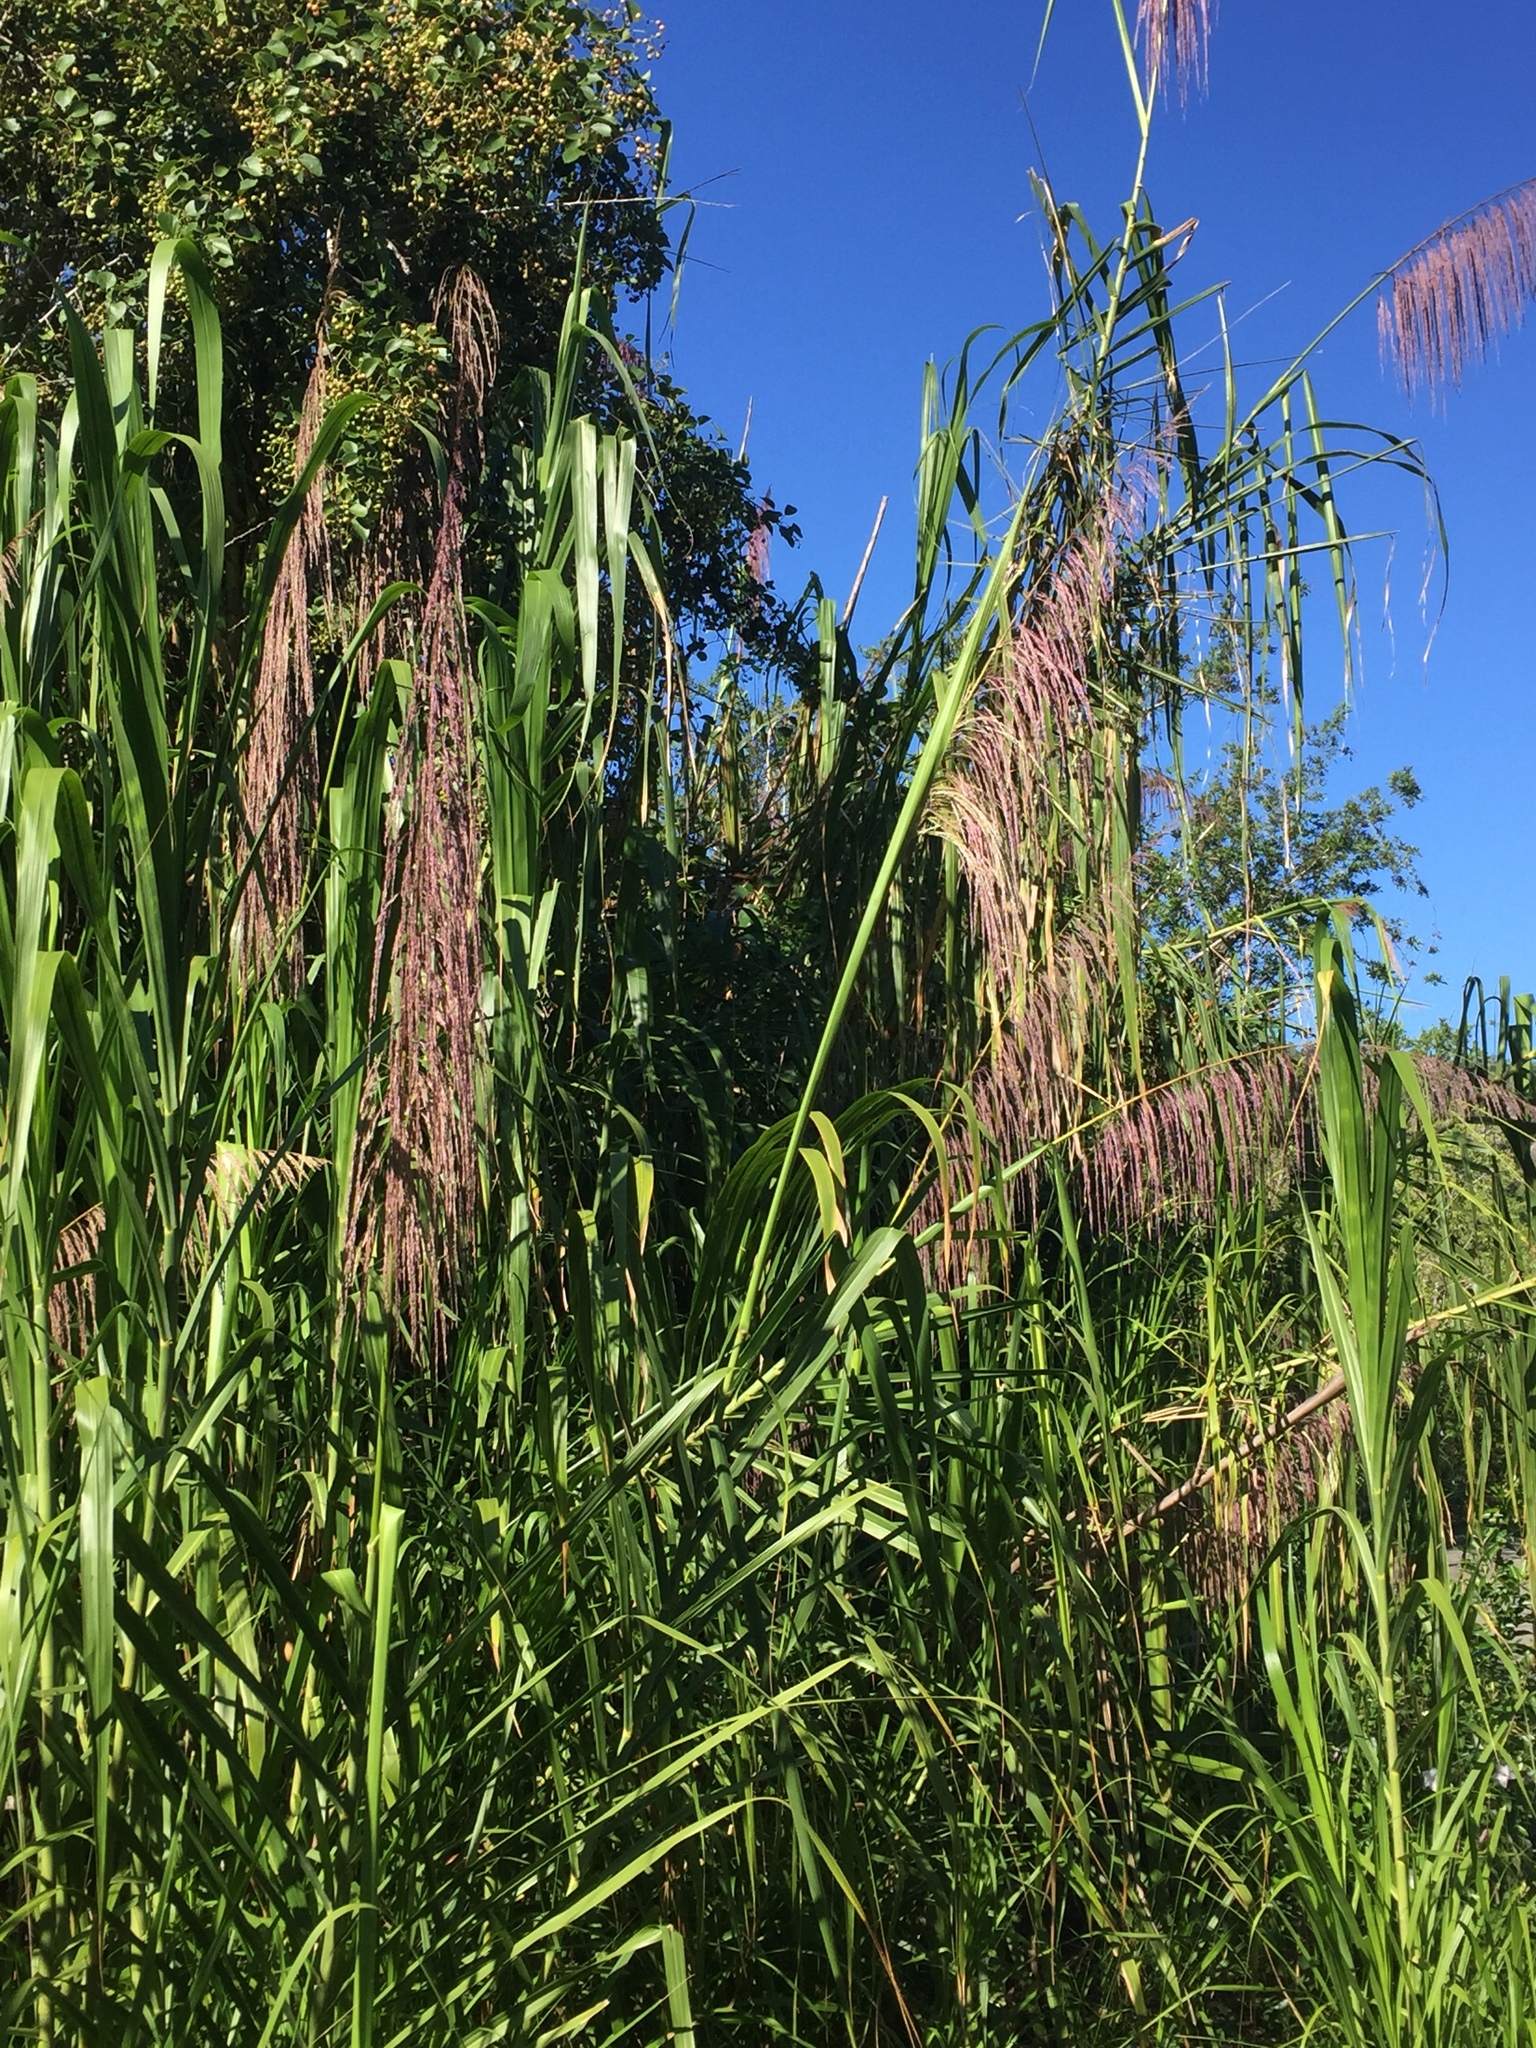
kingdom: Plantae
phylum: Tracheophyta
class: Liliopsida
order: Poales
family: Poaceae
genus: Gynerium
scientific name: Gynerium sagittatum
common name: Wild cane
